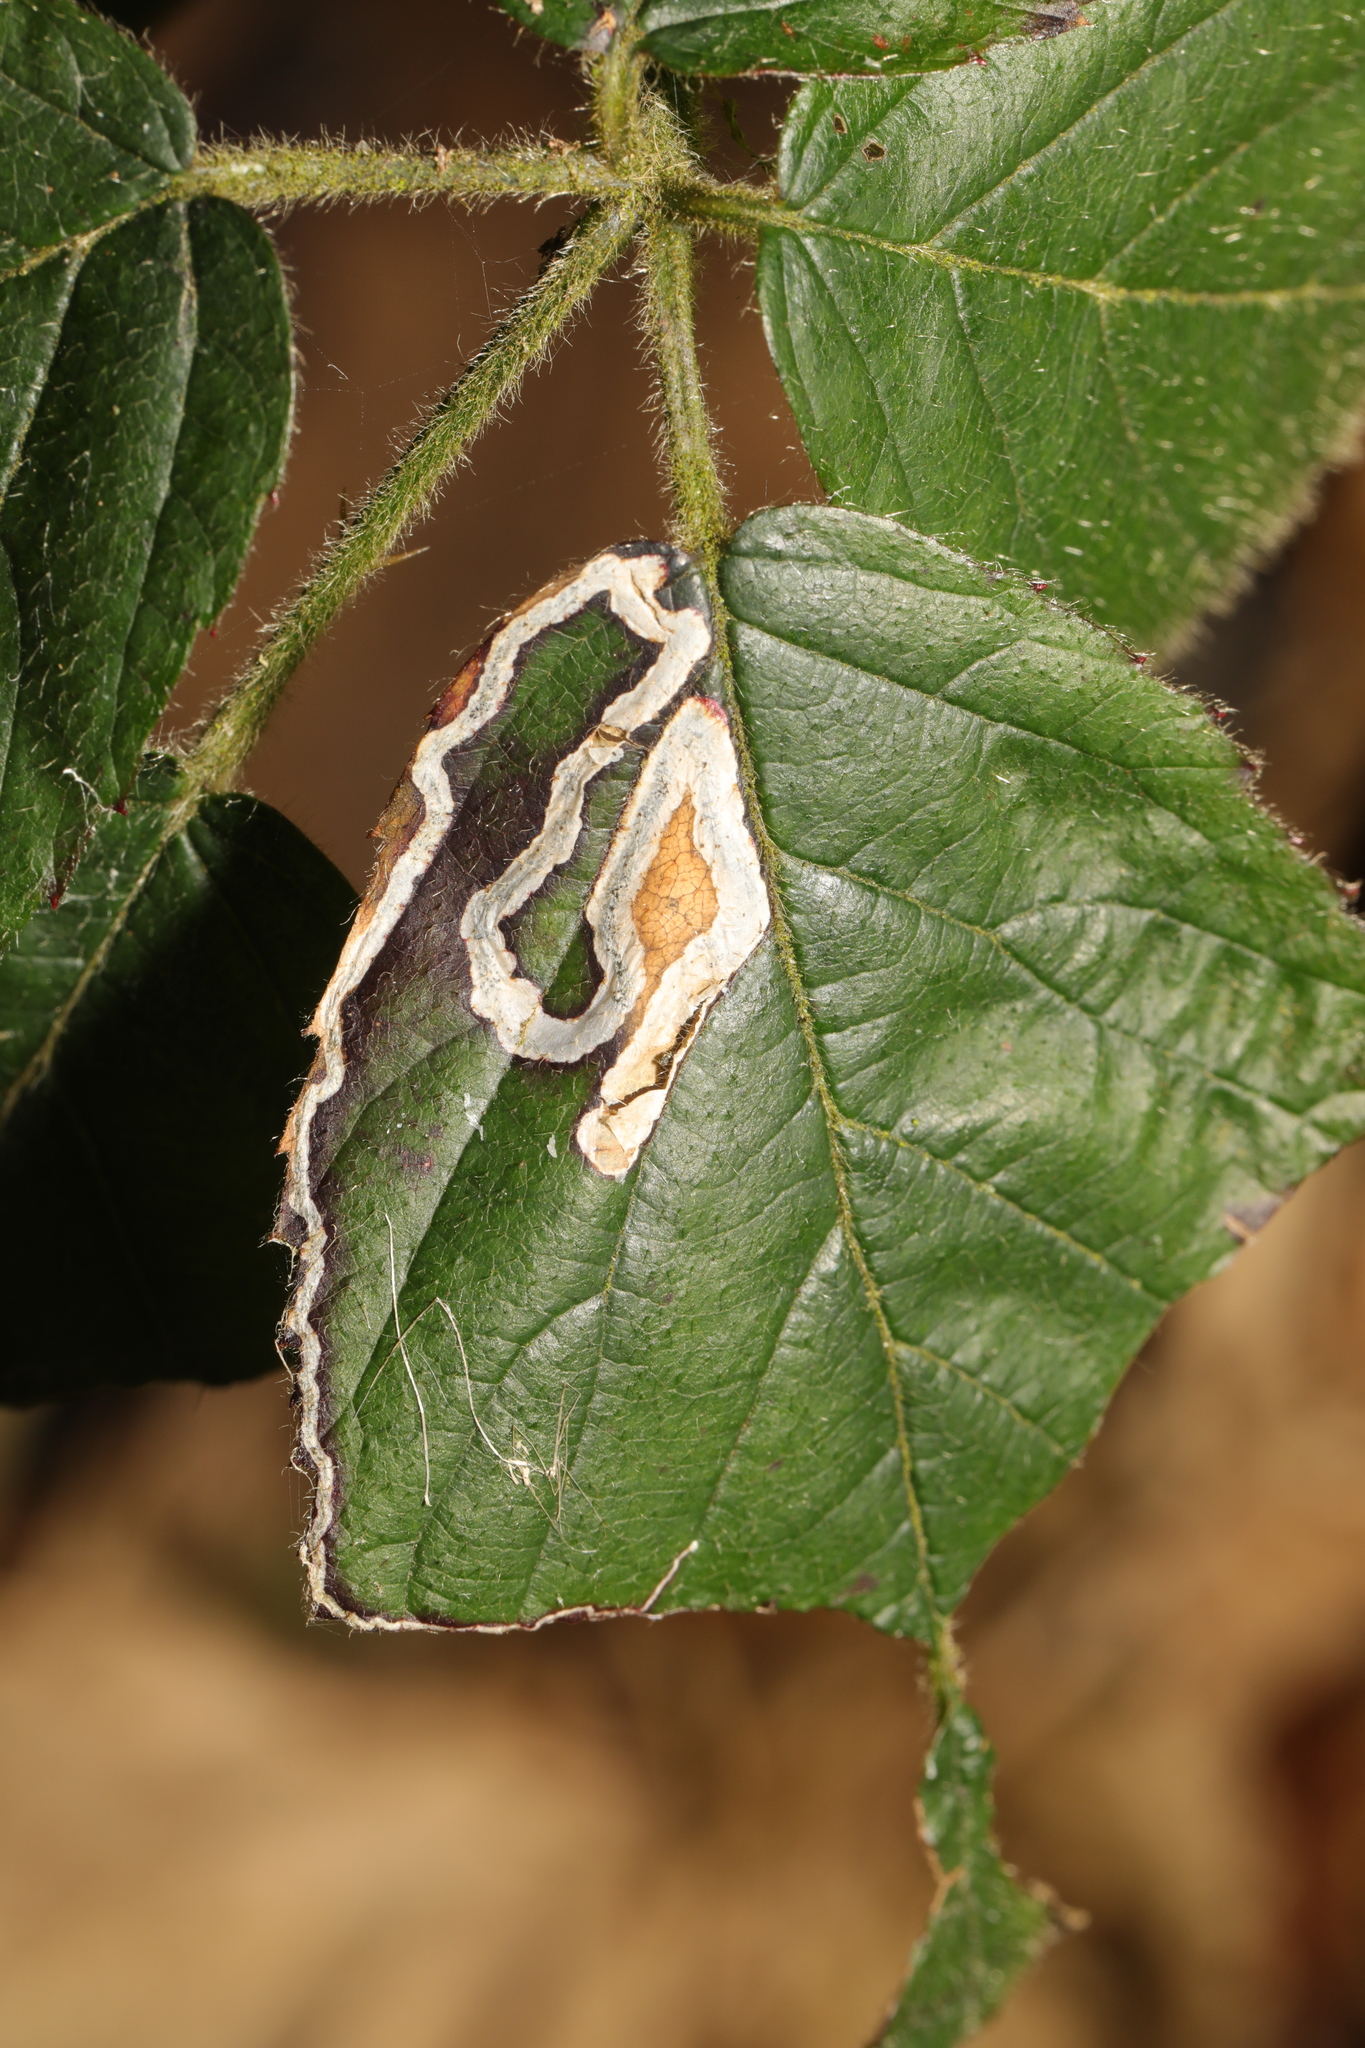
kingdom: Animalia
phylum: Arthropoda
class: Insecta
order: Lepidoptera
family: Nepticulidae
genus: Stigmella
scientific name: Stigmella aurella
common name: Golden pigmy
